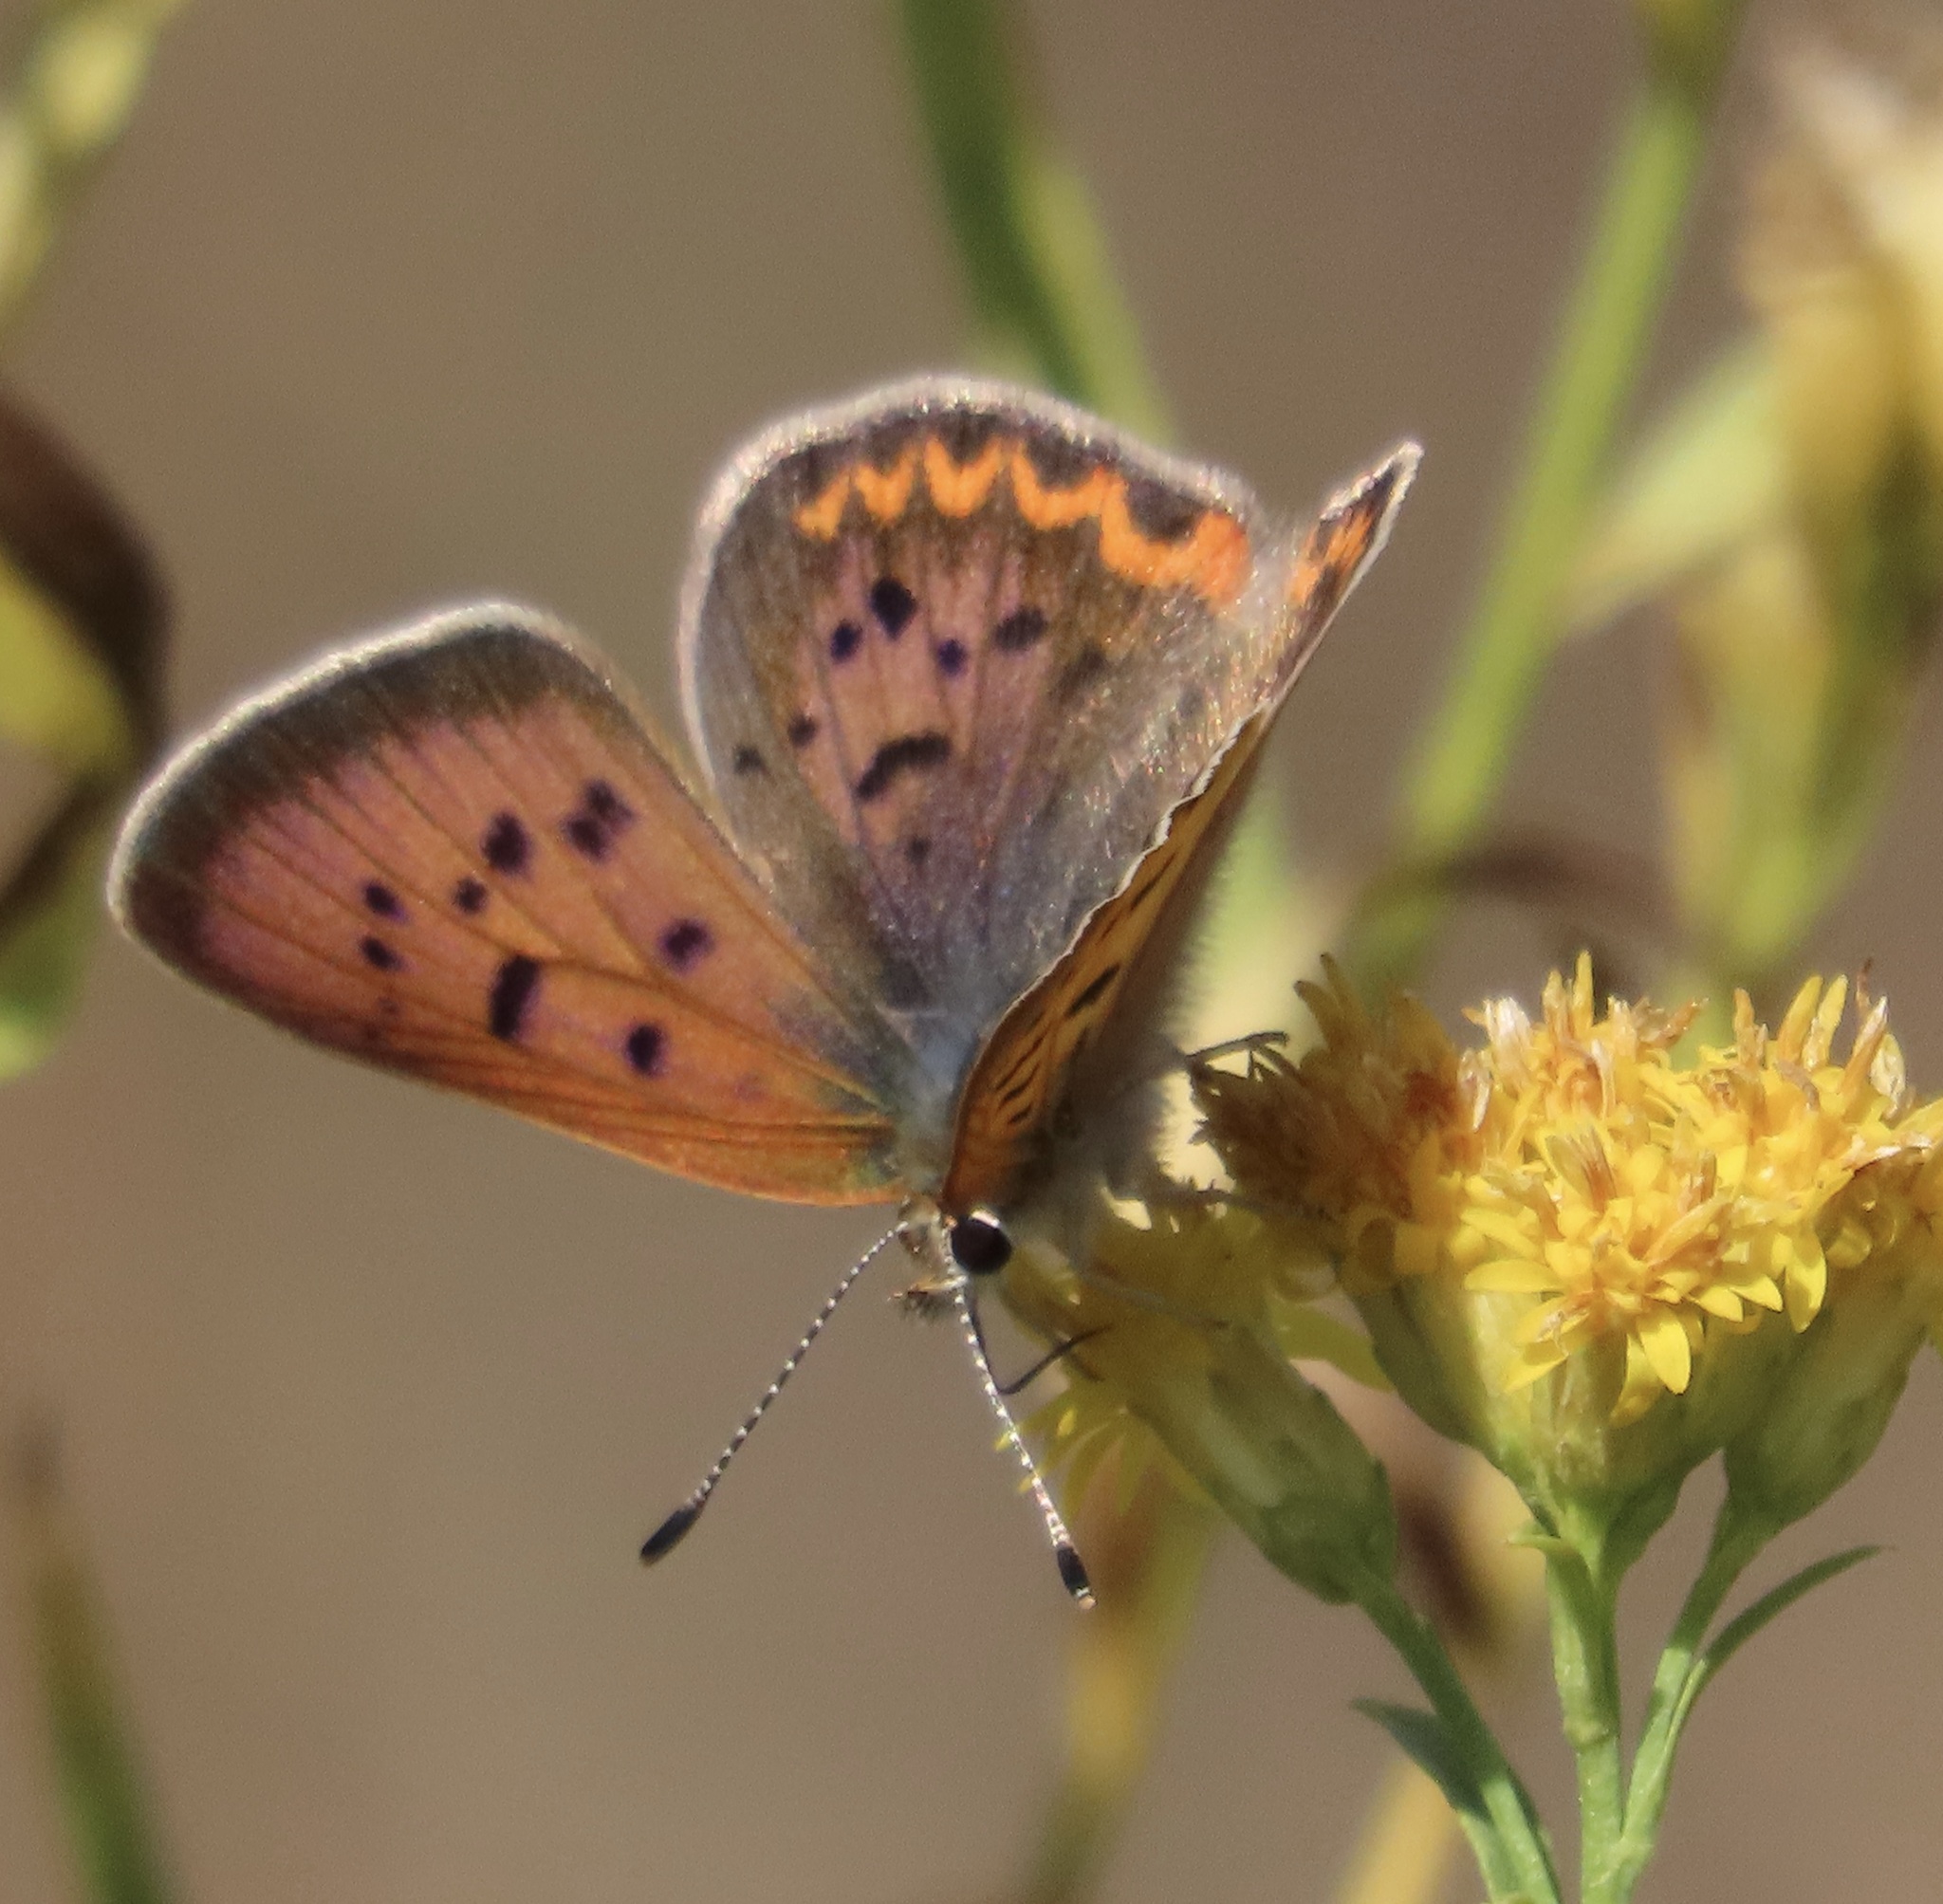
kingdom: Animalia
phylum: Arthropoda
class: Insecta
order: Lepidoptera
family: Lycaenidae
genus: Tharsalea
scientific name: Tharsalea helloides
